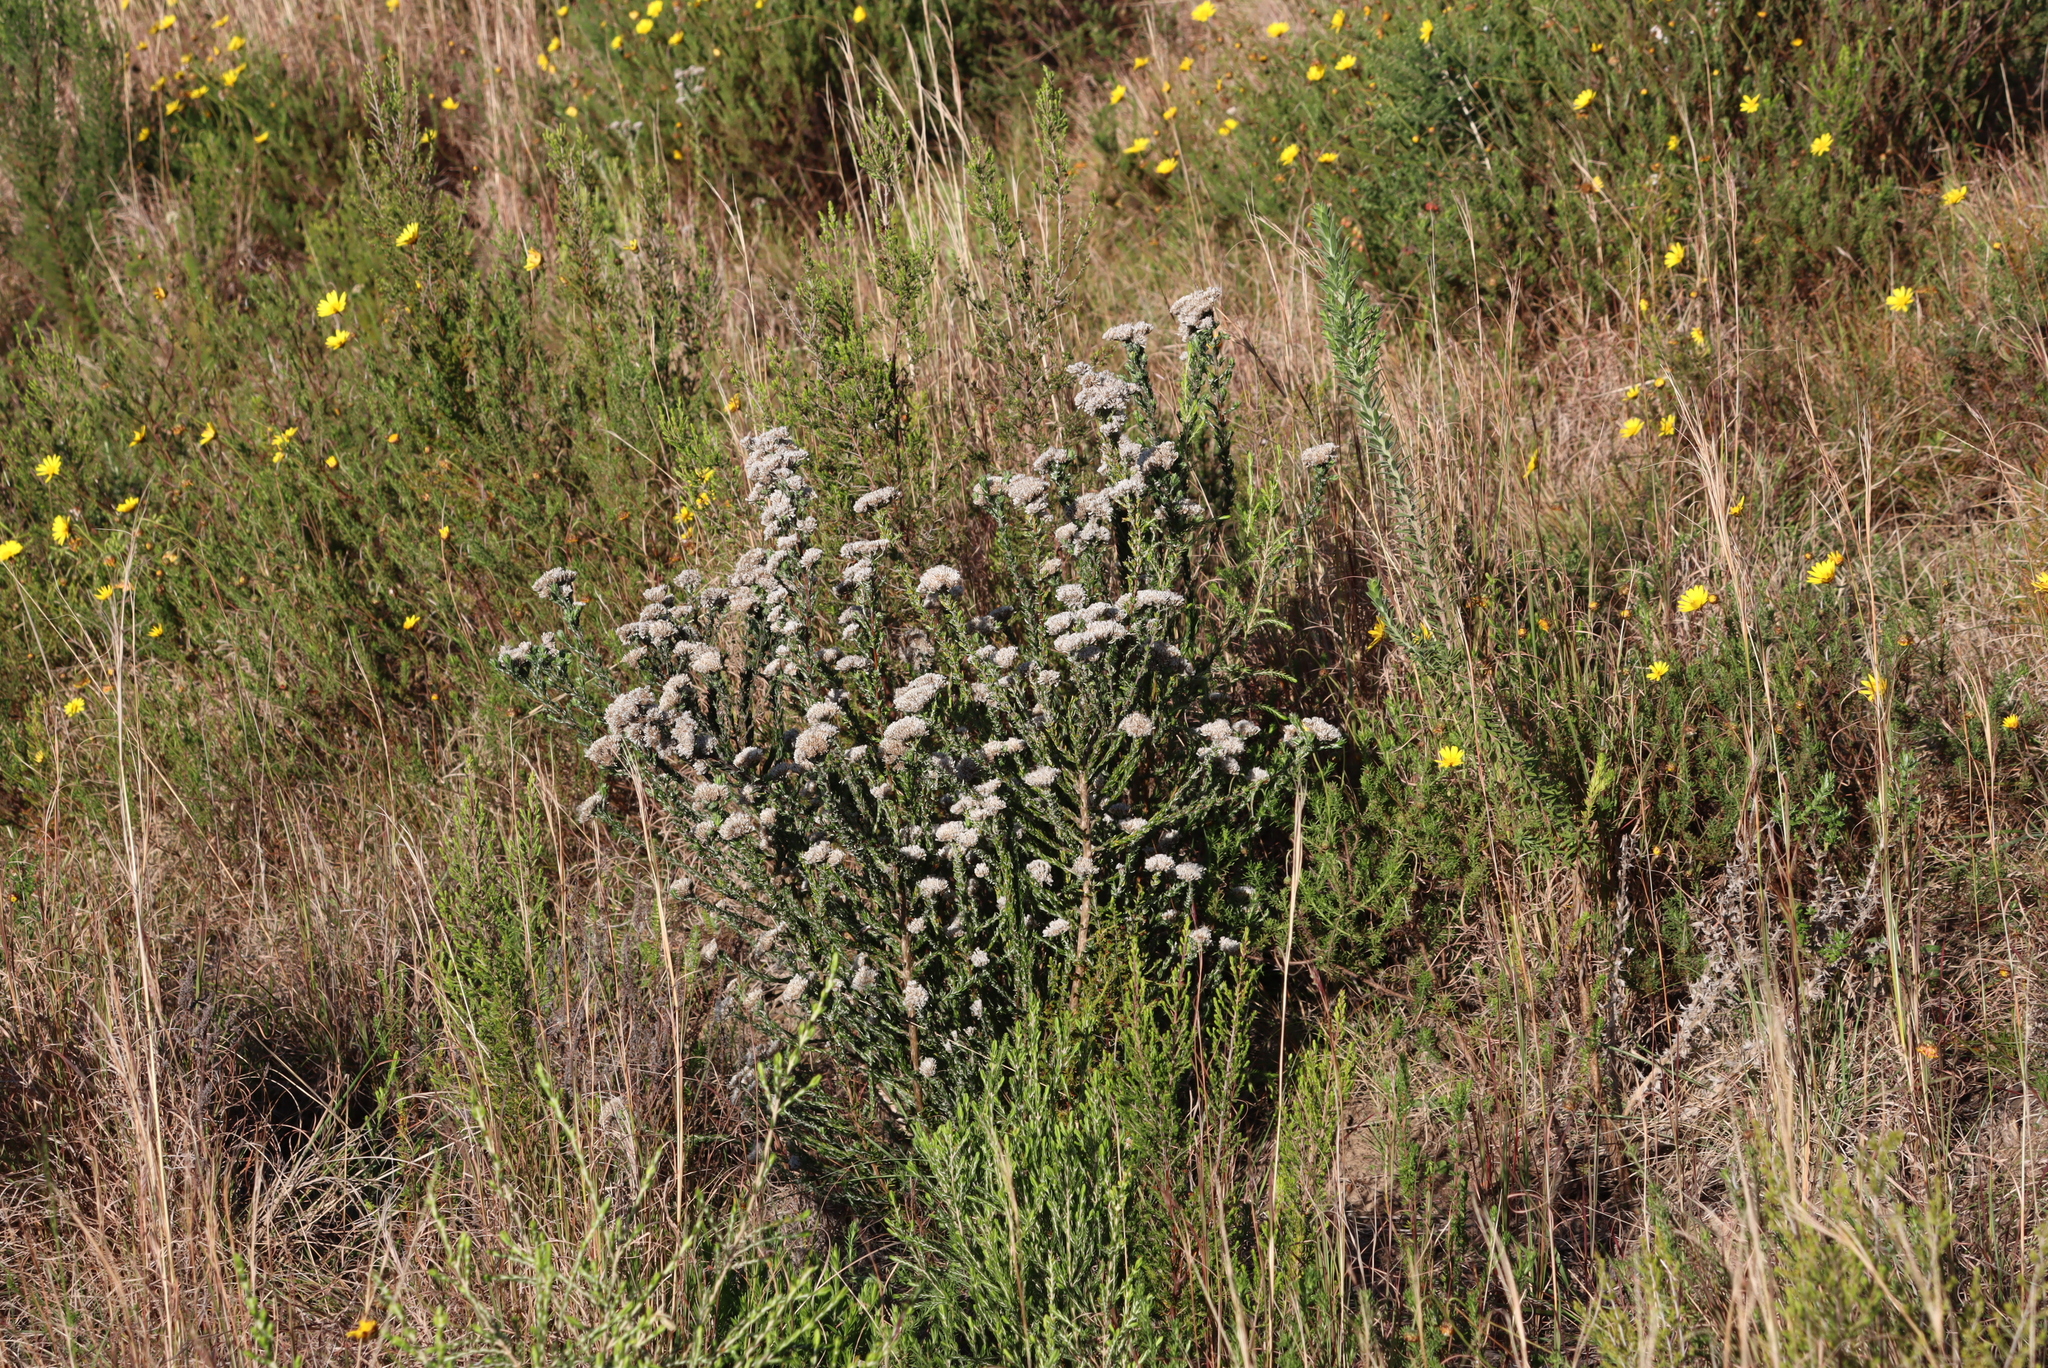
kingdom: Plantae
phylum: Tracheophyta
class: Magnoliopsida
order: Asterales
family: Asteraceae
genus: Metalasia
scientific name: Metalasia pungens
